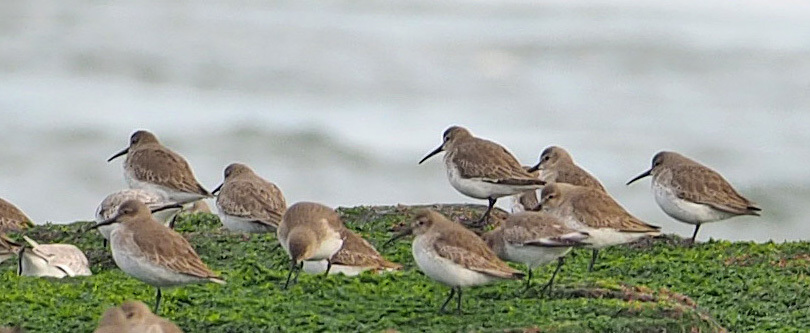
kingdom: Animalia
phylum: Chordata
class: Aves
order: Charadriiformes
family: Scolopacidae
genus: Calidris
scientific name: Calidris alpina
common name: Dunlin
